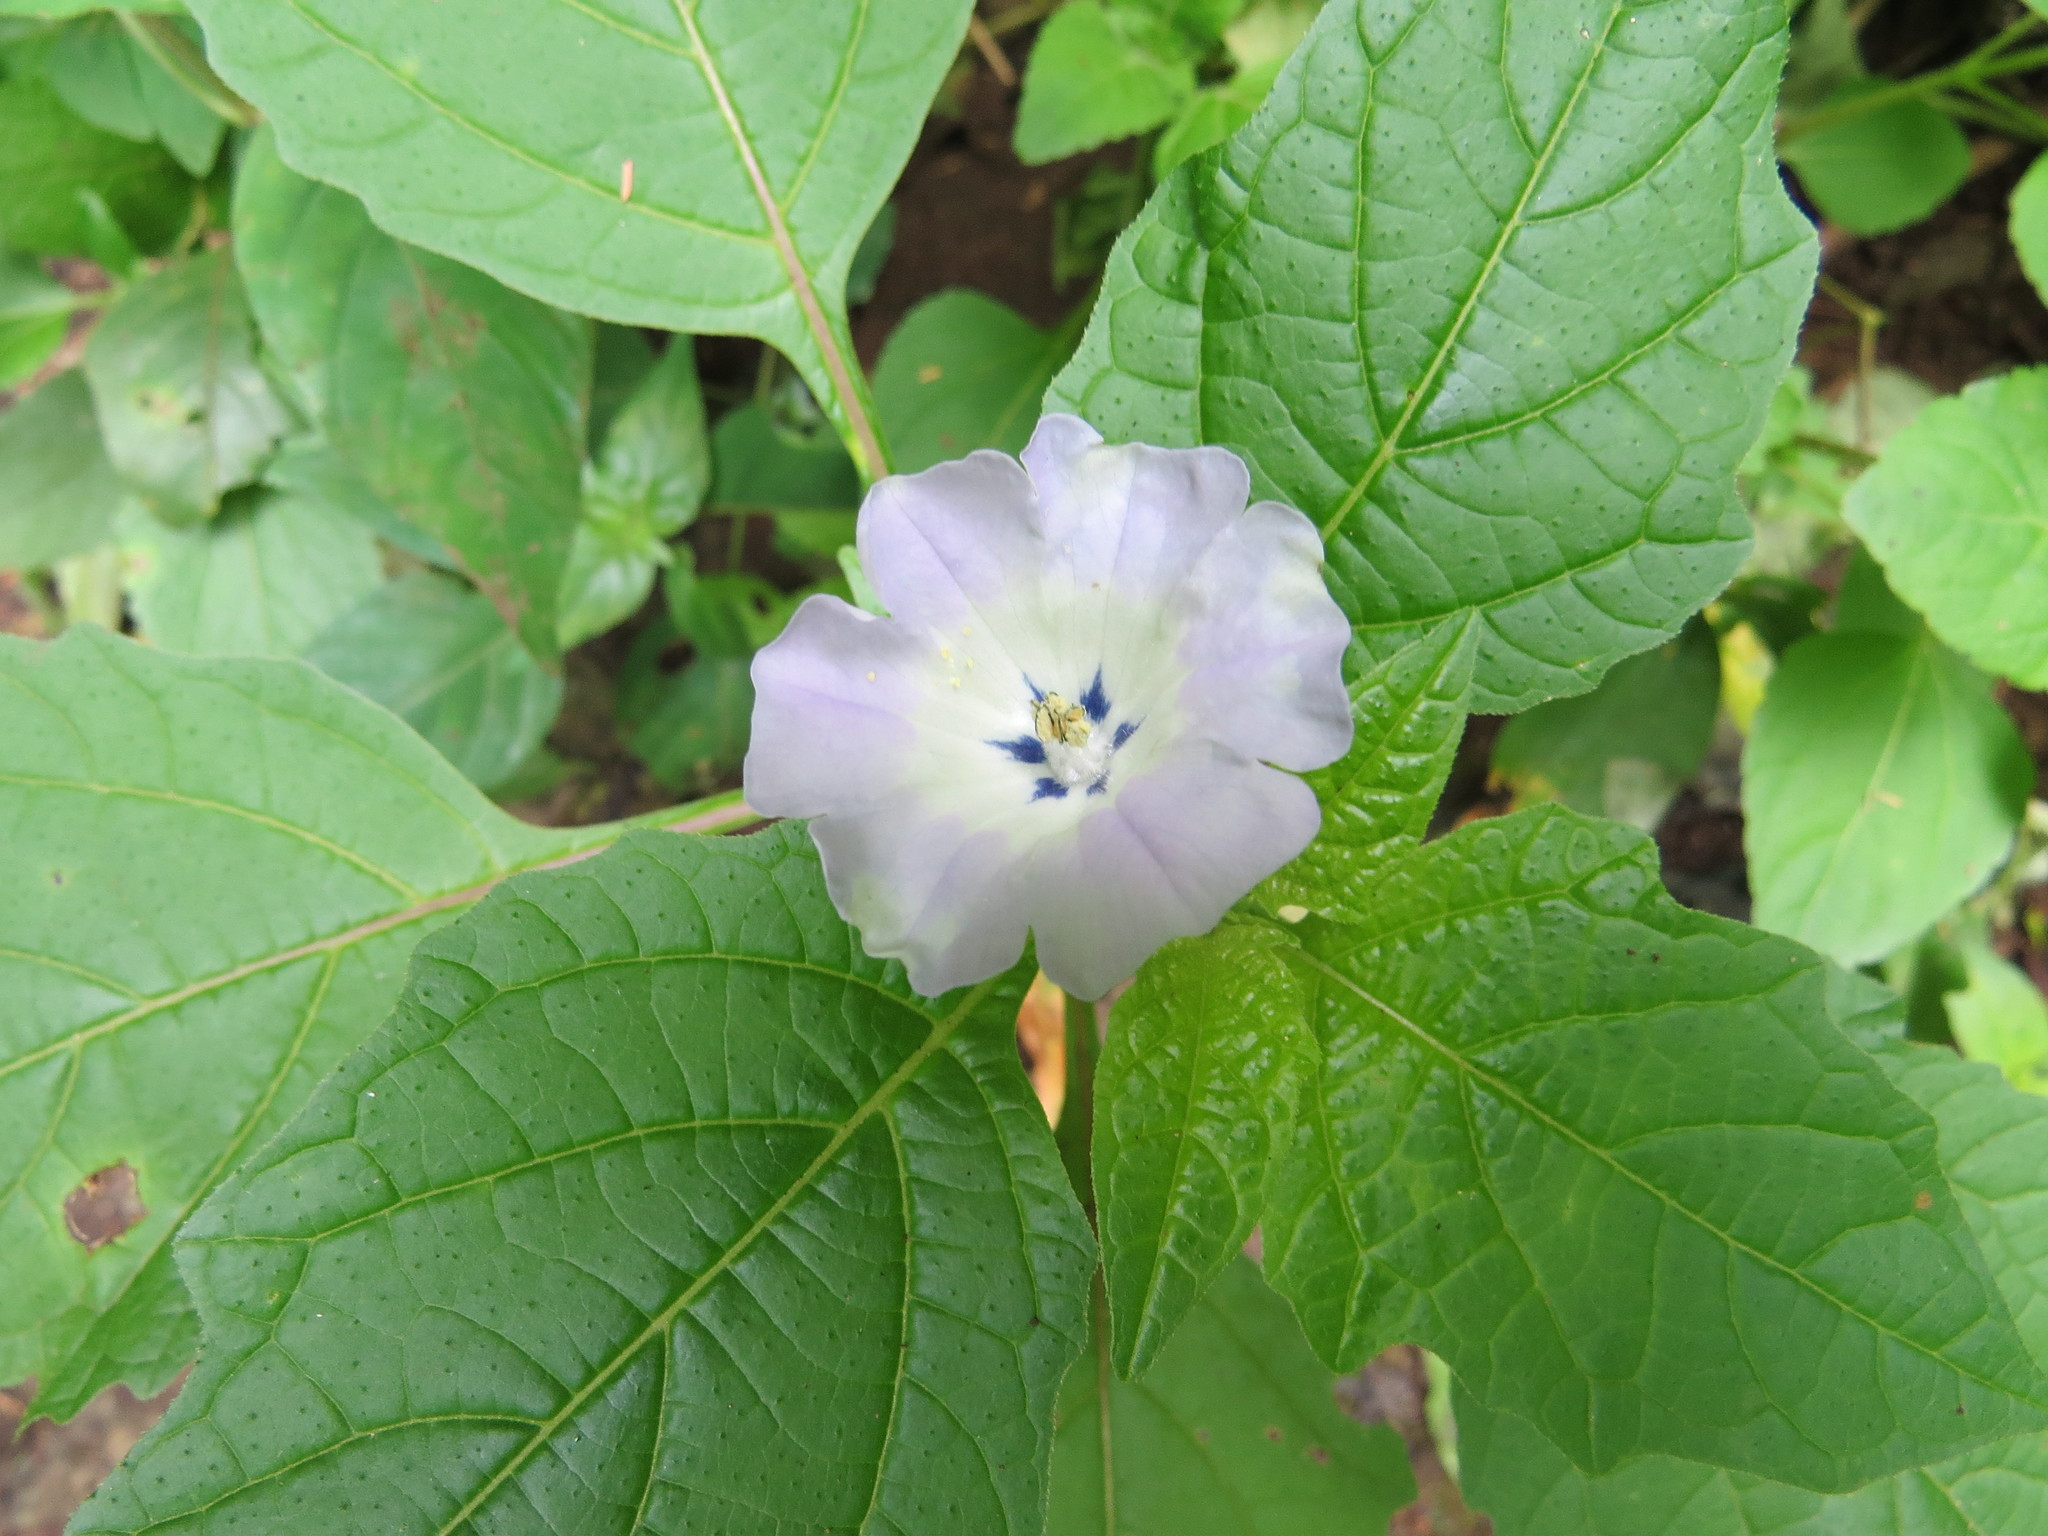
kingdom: Plantae
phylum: Tracheophyta
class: Magnoliopsida
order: Solanales
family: Solanaceae
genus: Nicandra
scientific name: Nicandra physalodes
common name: Apple-of-peru
